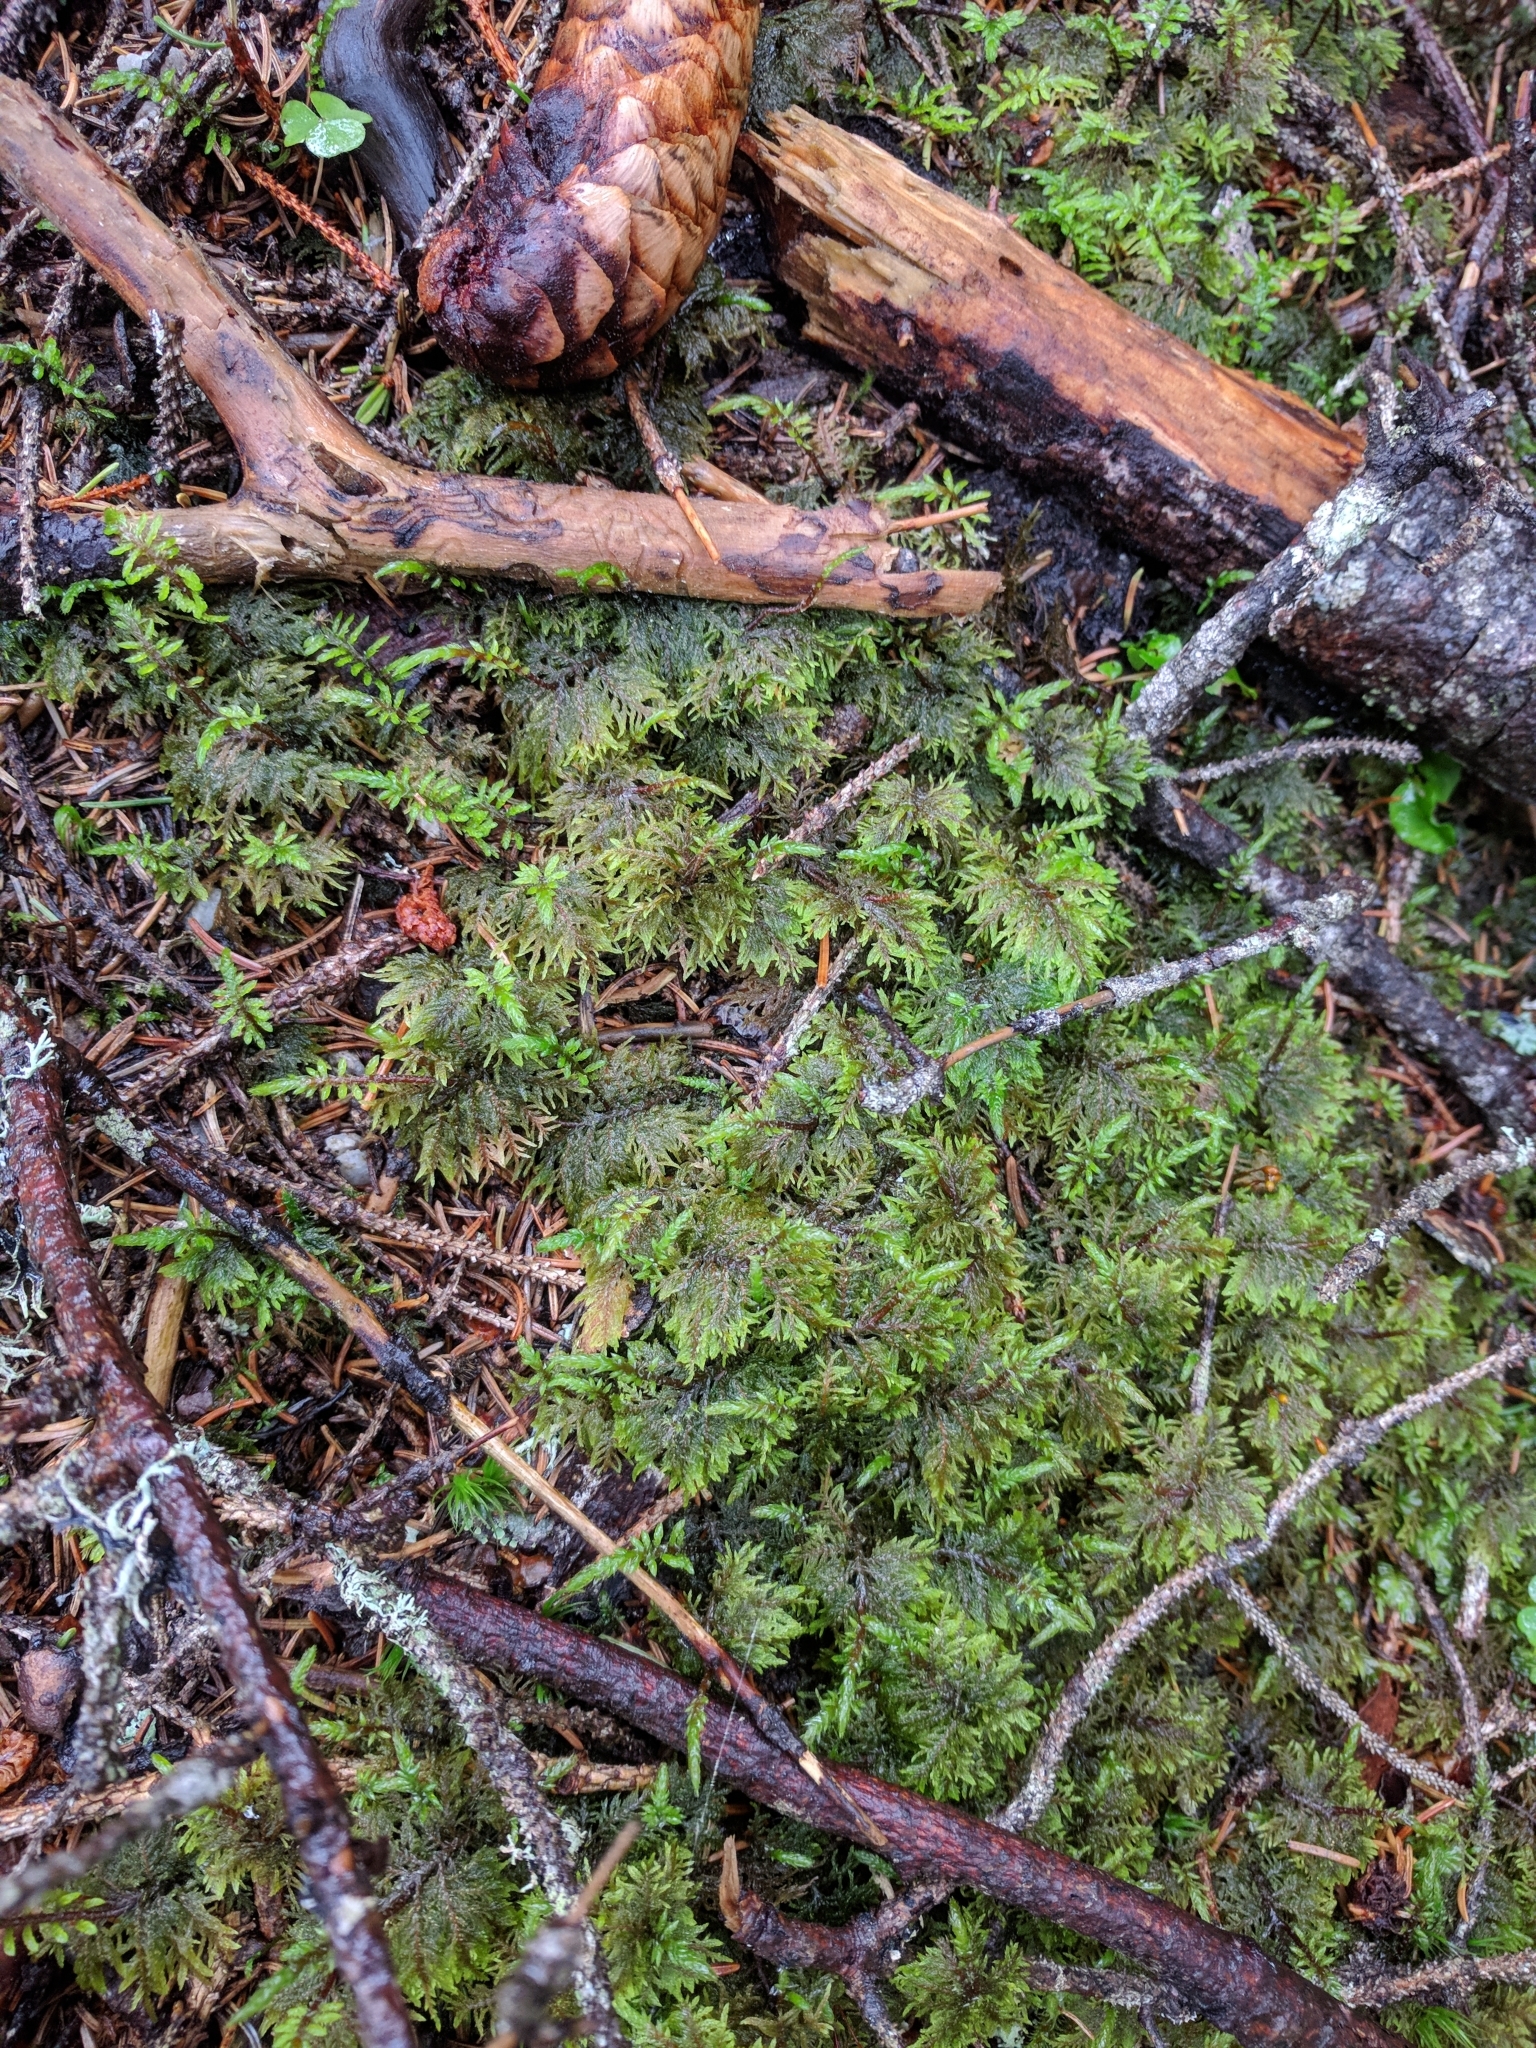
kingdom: Plantae
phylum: Bryophyta
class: Bryopsida
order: Hypnales
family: Hylocomiaceae
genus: Hylocomium
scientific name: Hylocomium splendens
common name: Stairstep moss
